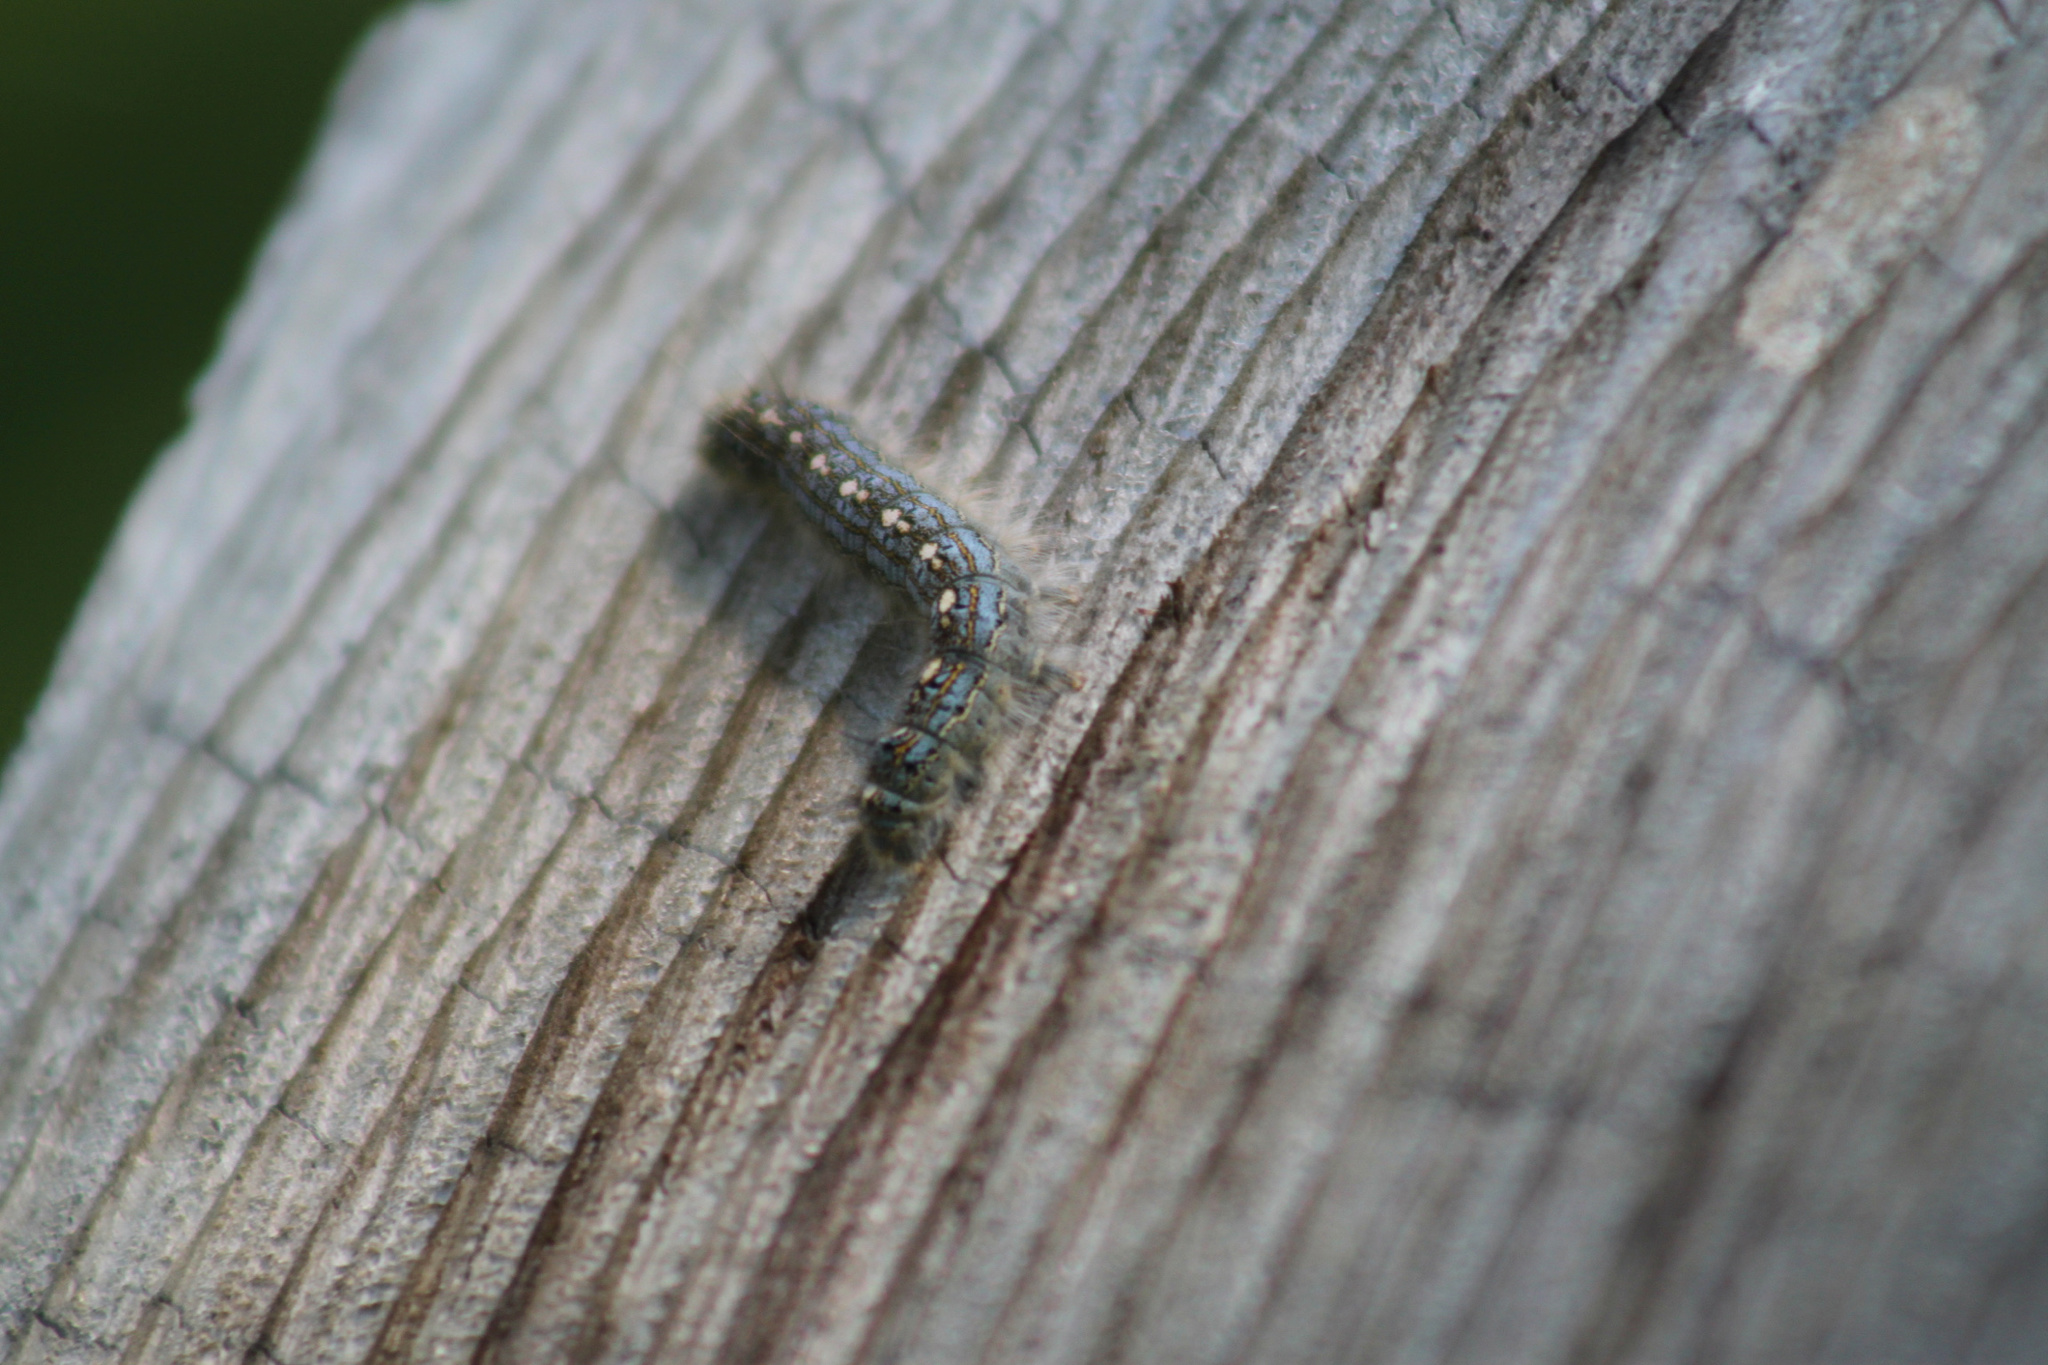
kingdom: Animalia
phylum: Arthropoda
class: Insecta
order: Lepidoptera
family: Lasiocampidae
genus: Malacosoma
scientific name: Malacosoma disstria
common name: Forest tent caterpillar
